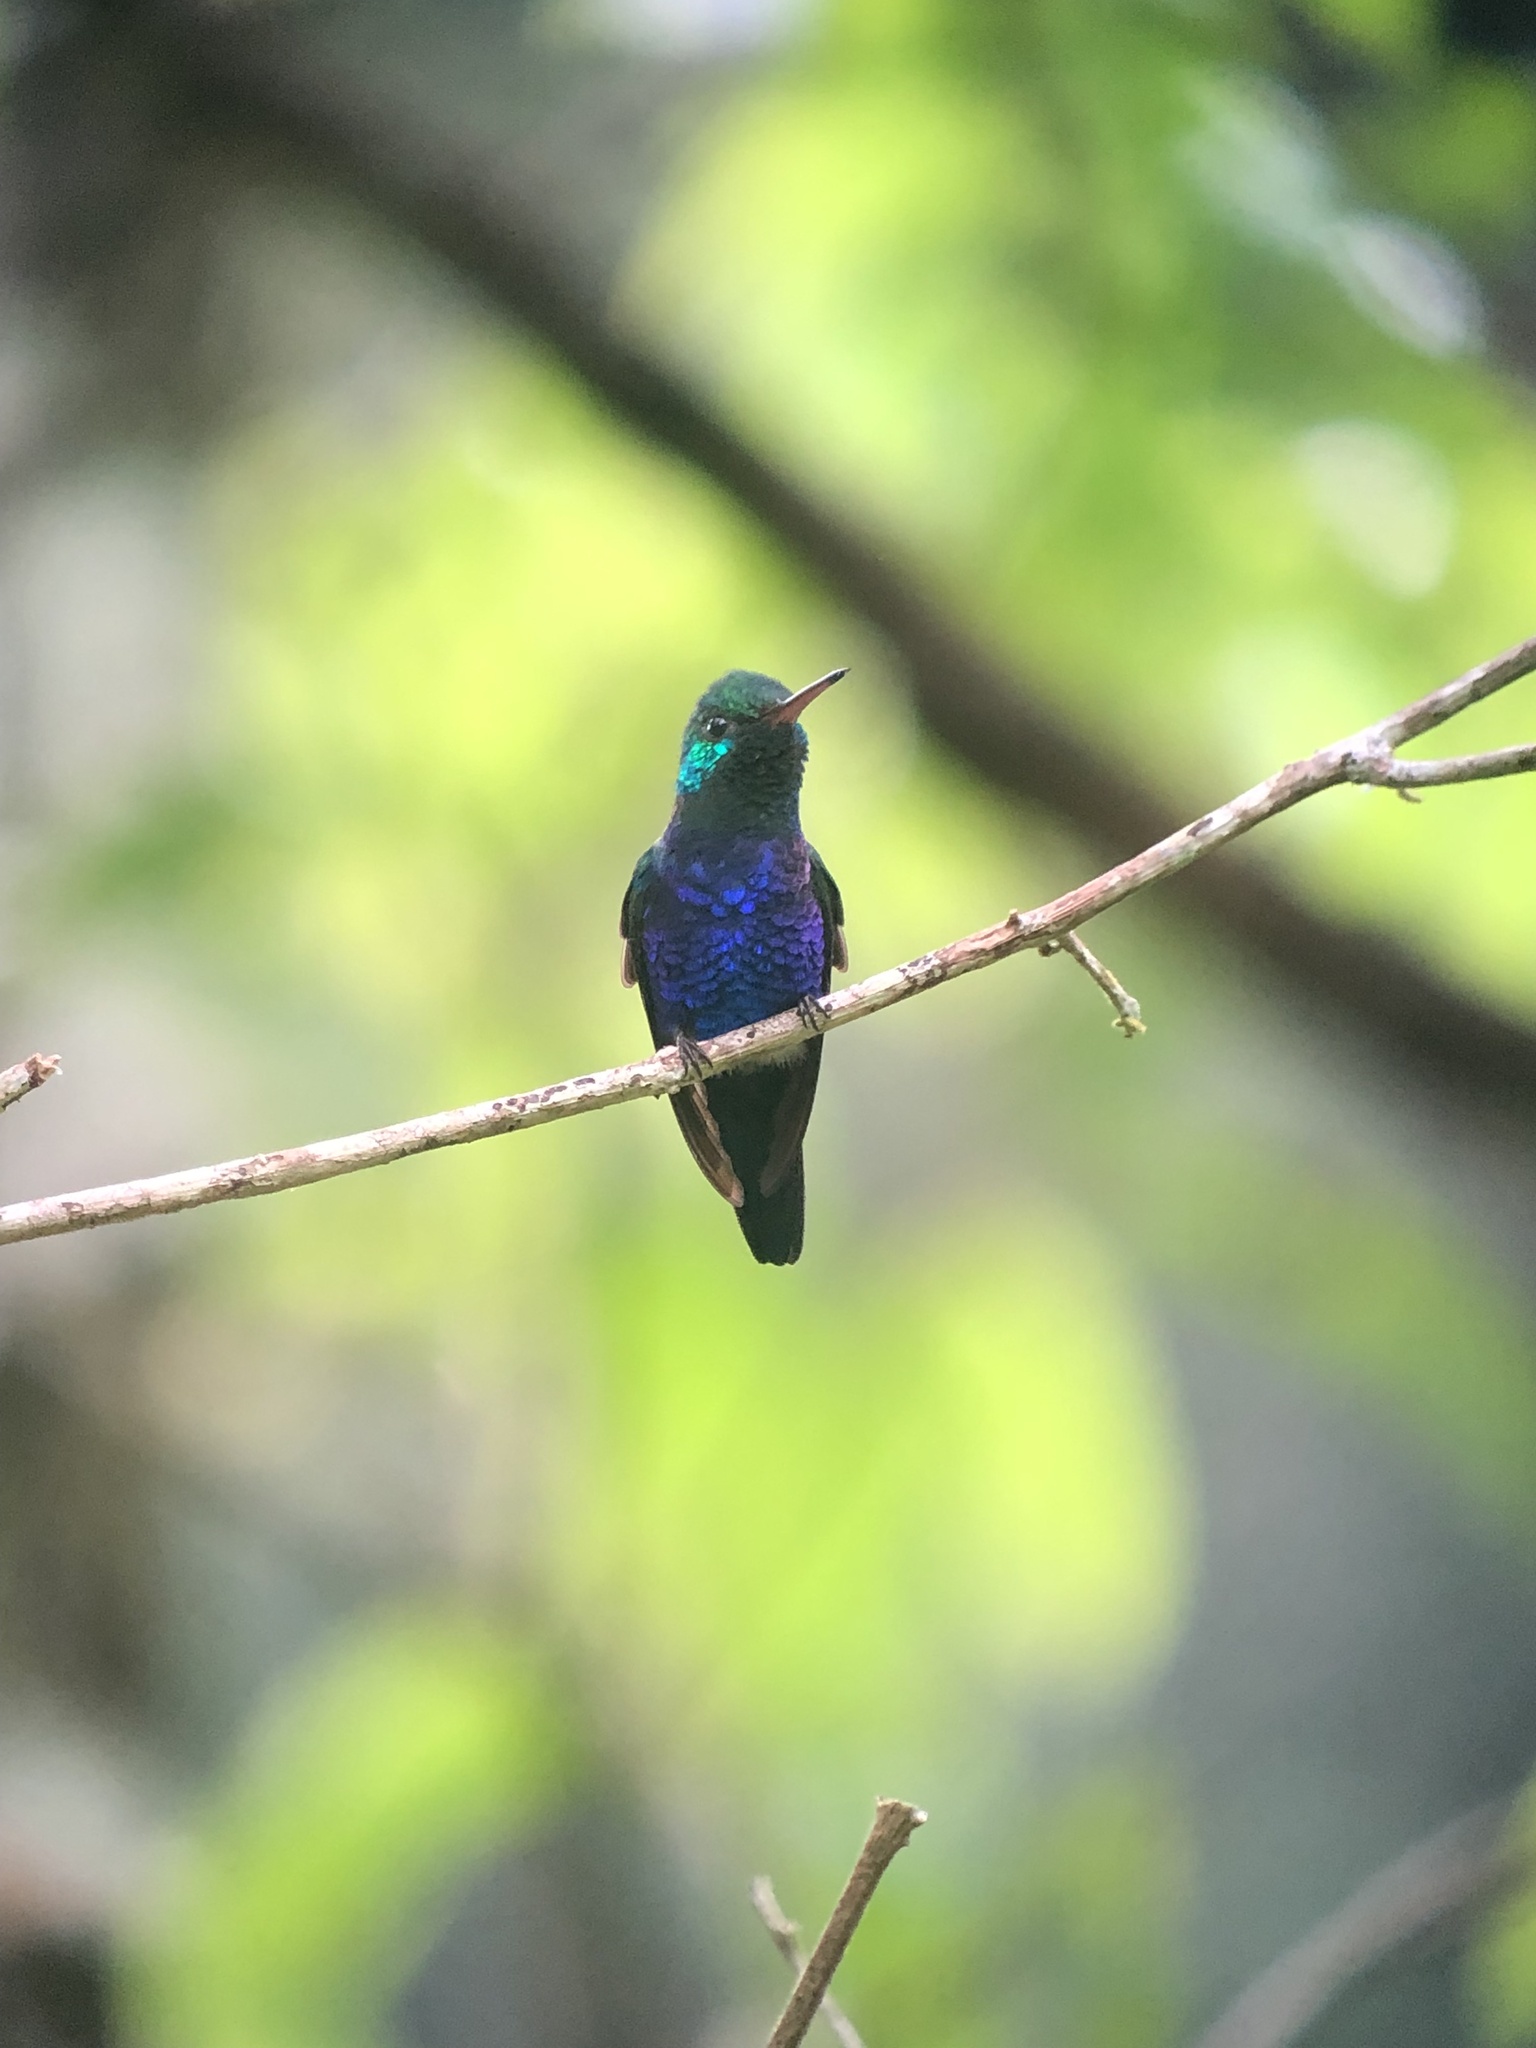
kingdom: Animalia
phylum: Chordata
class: Aves
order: Apodiformes
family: Trochilidae
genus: Chlorestes
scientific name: Chlorestes julie
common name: Violet-bellied hummingbird
